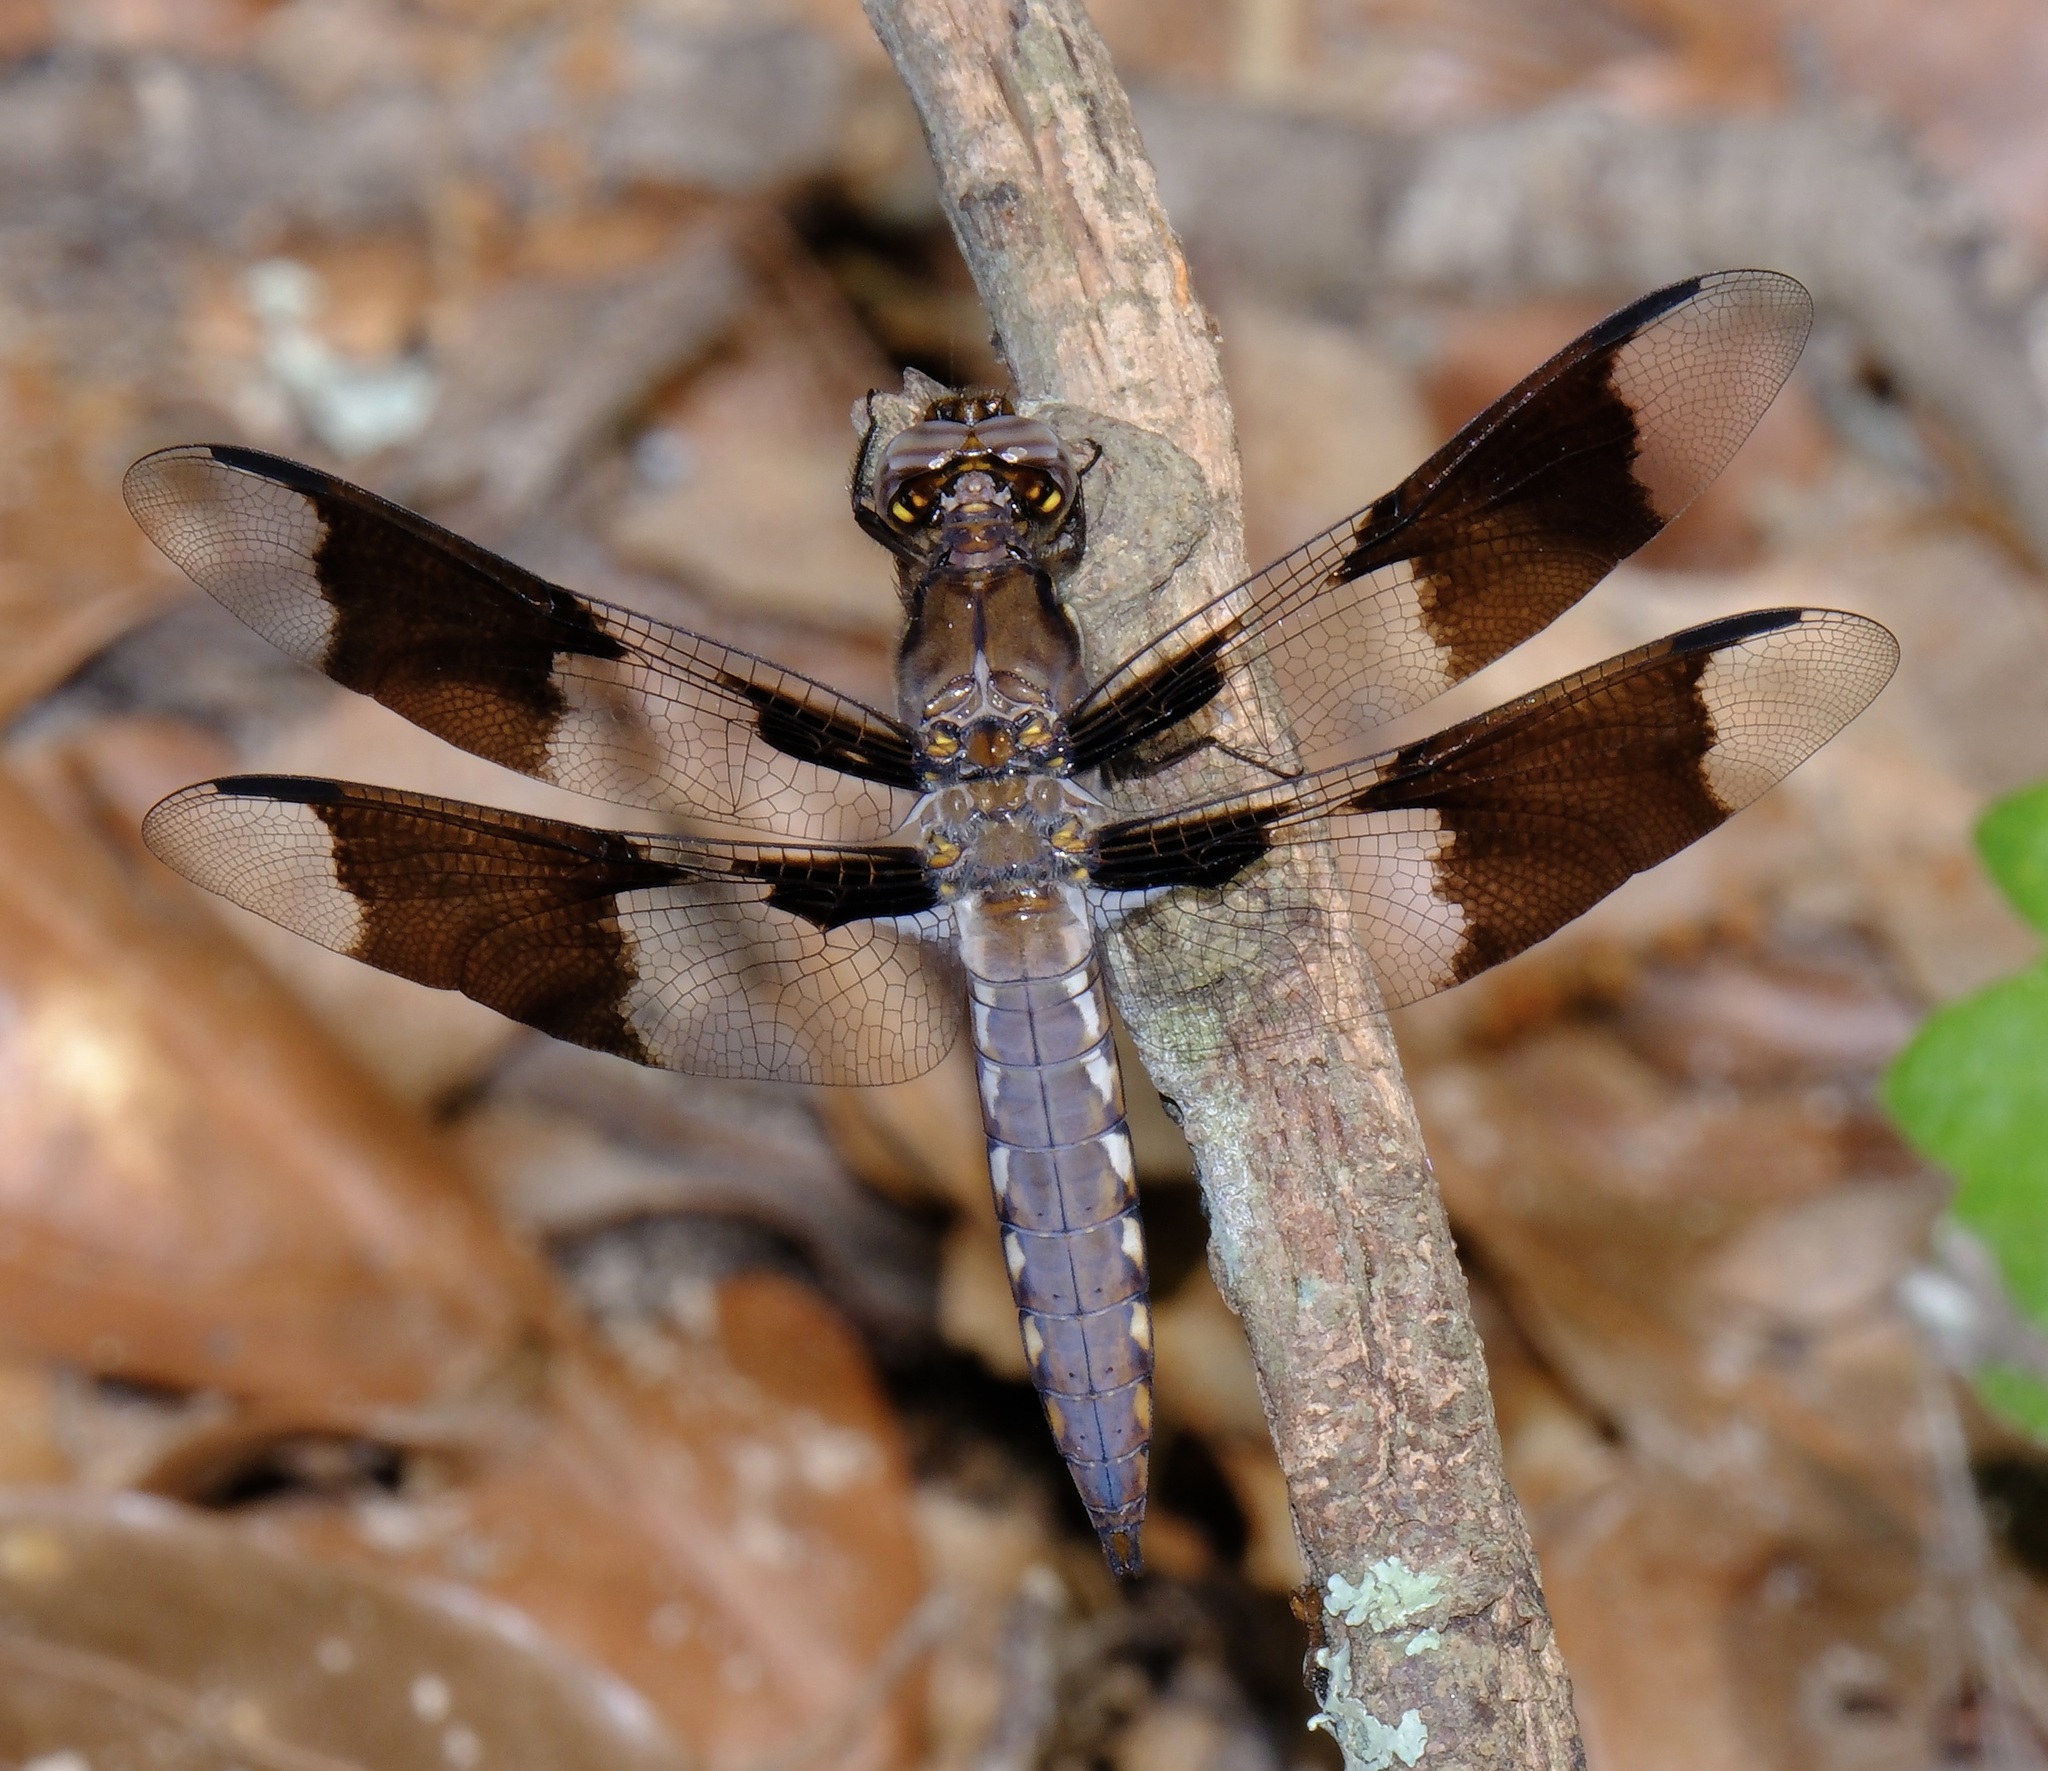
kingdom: Animalia
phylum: Arthropoda
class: Insecta
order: Odonata
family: Libellulidae
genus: Plathemis
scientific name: Plathemis lydia
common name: Common whitetail
